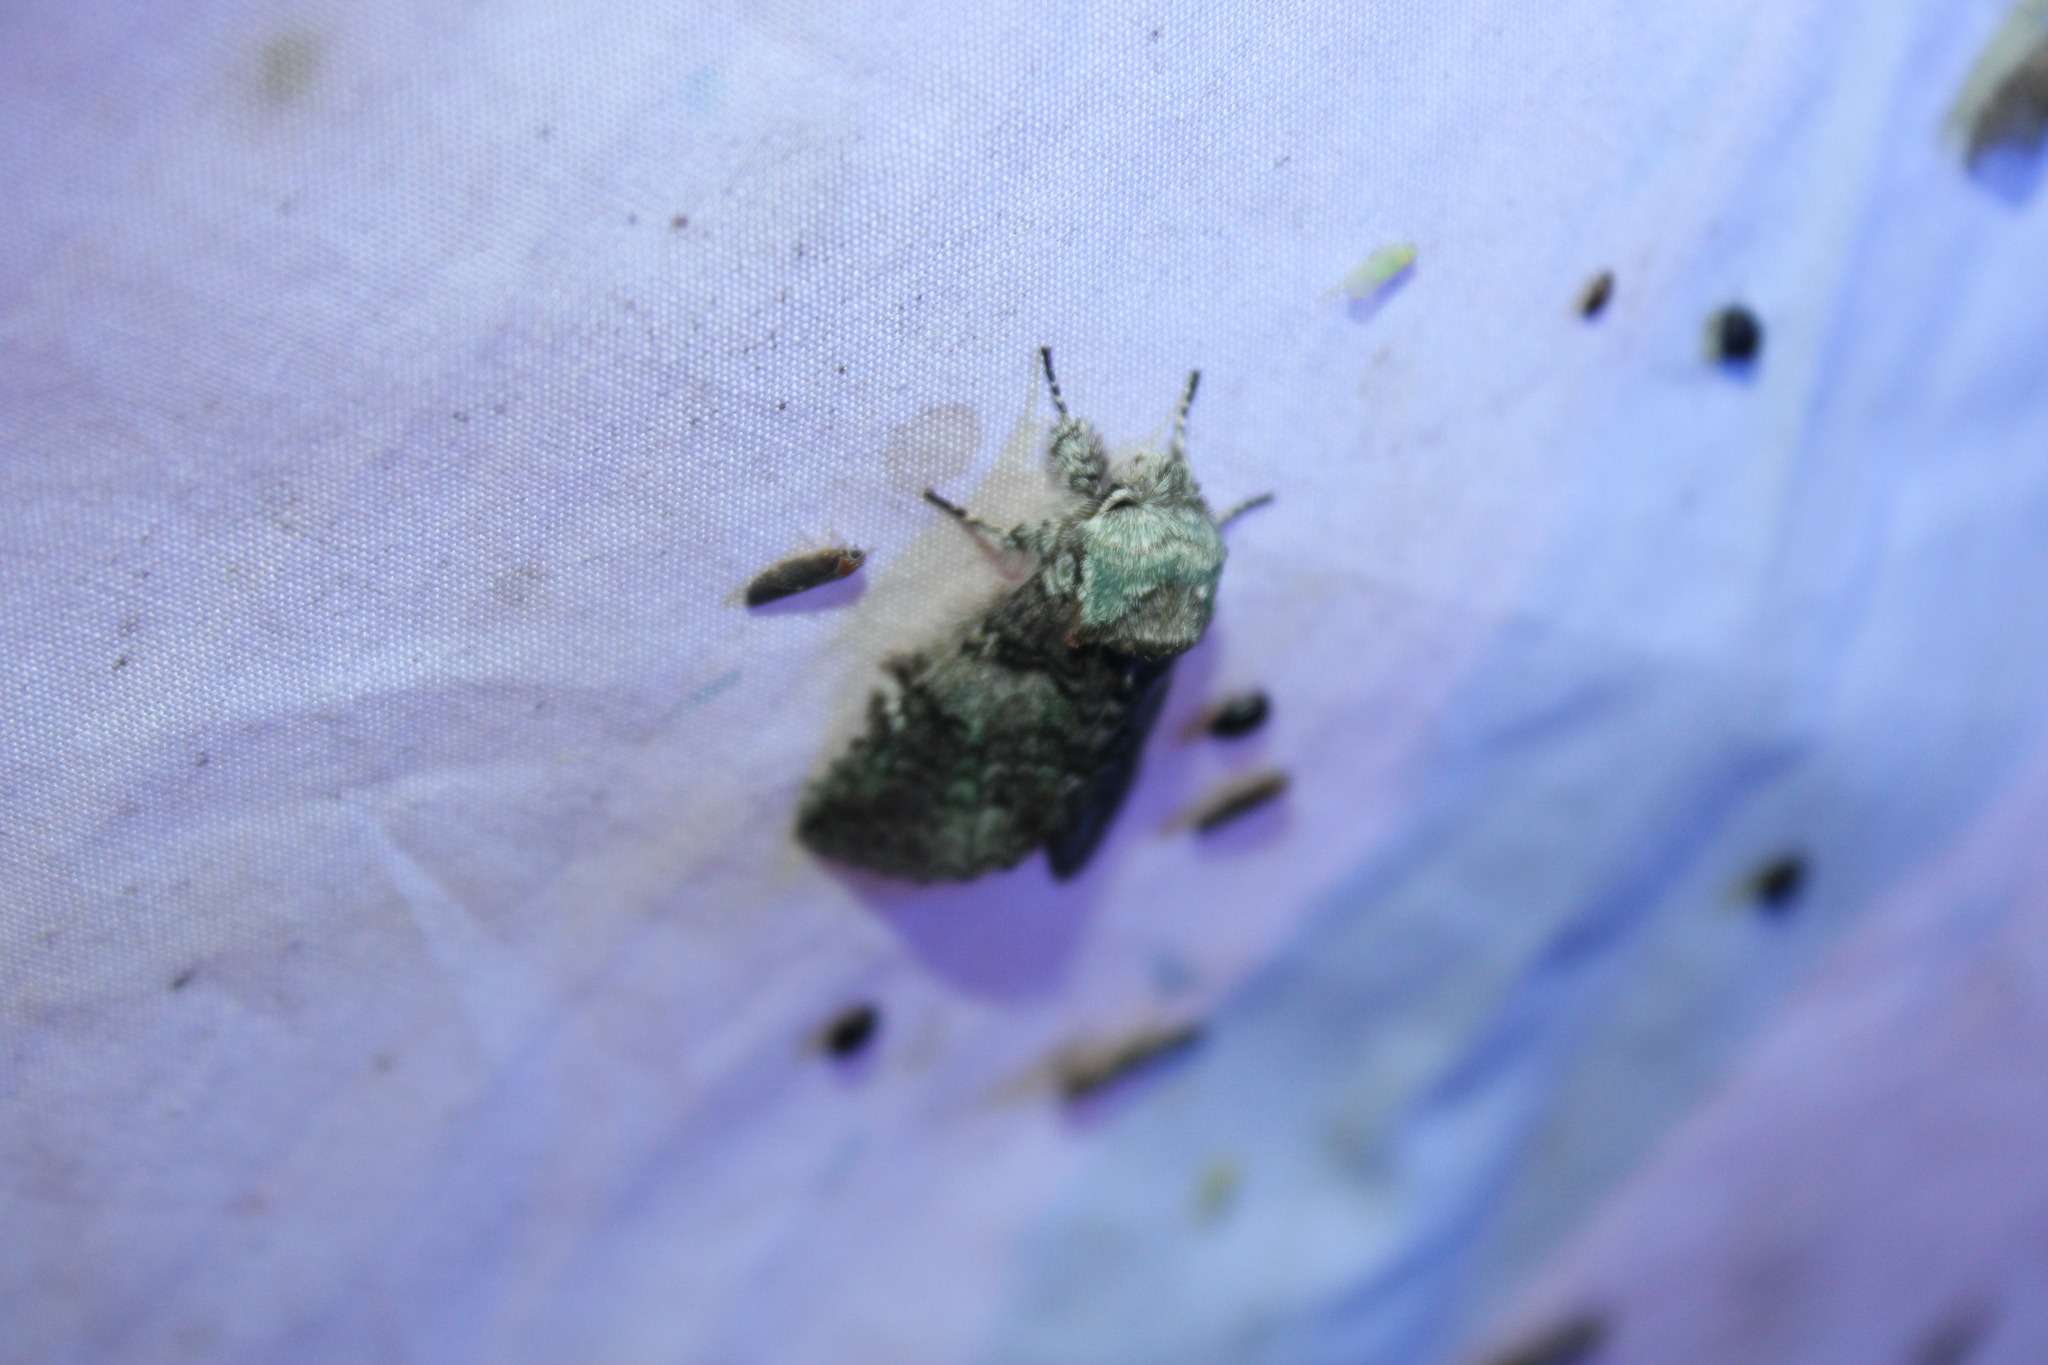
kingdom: Animalia
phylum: Arthropoda
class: Insecta
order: Lepidoptera
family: Notodontidae
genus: Macrurocampa
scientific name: Macrurocampa marthesia
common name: Mottled prominent
